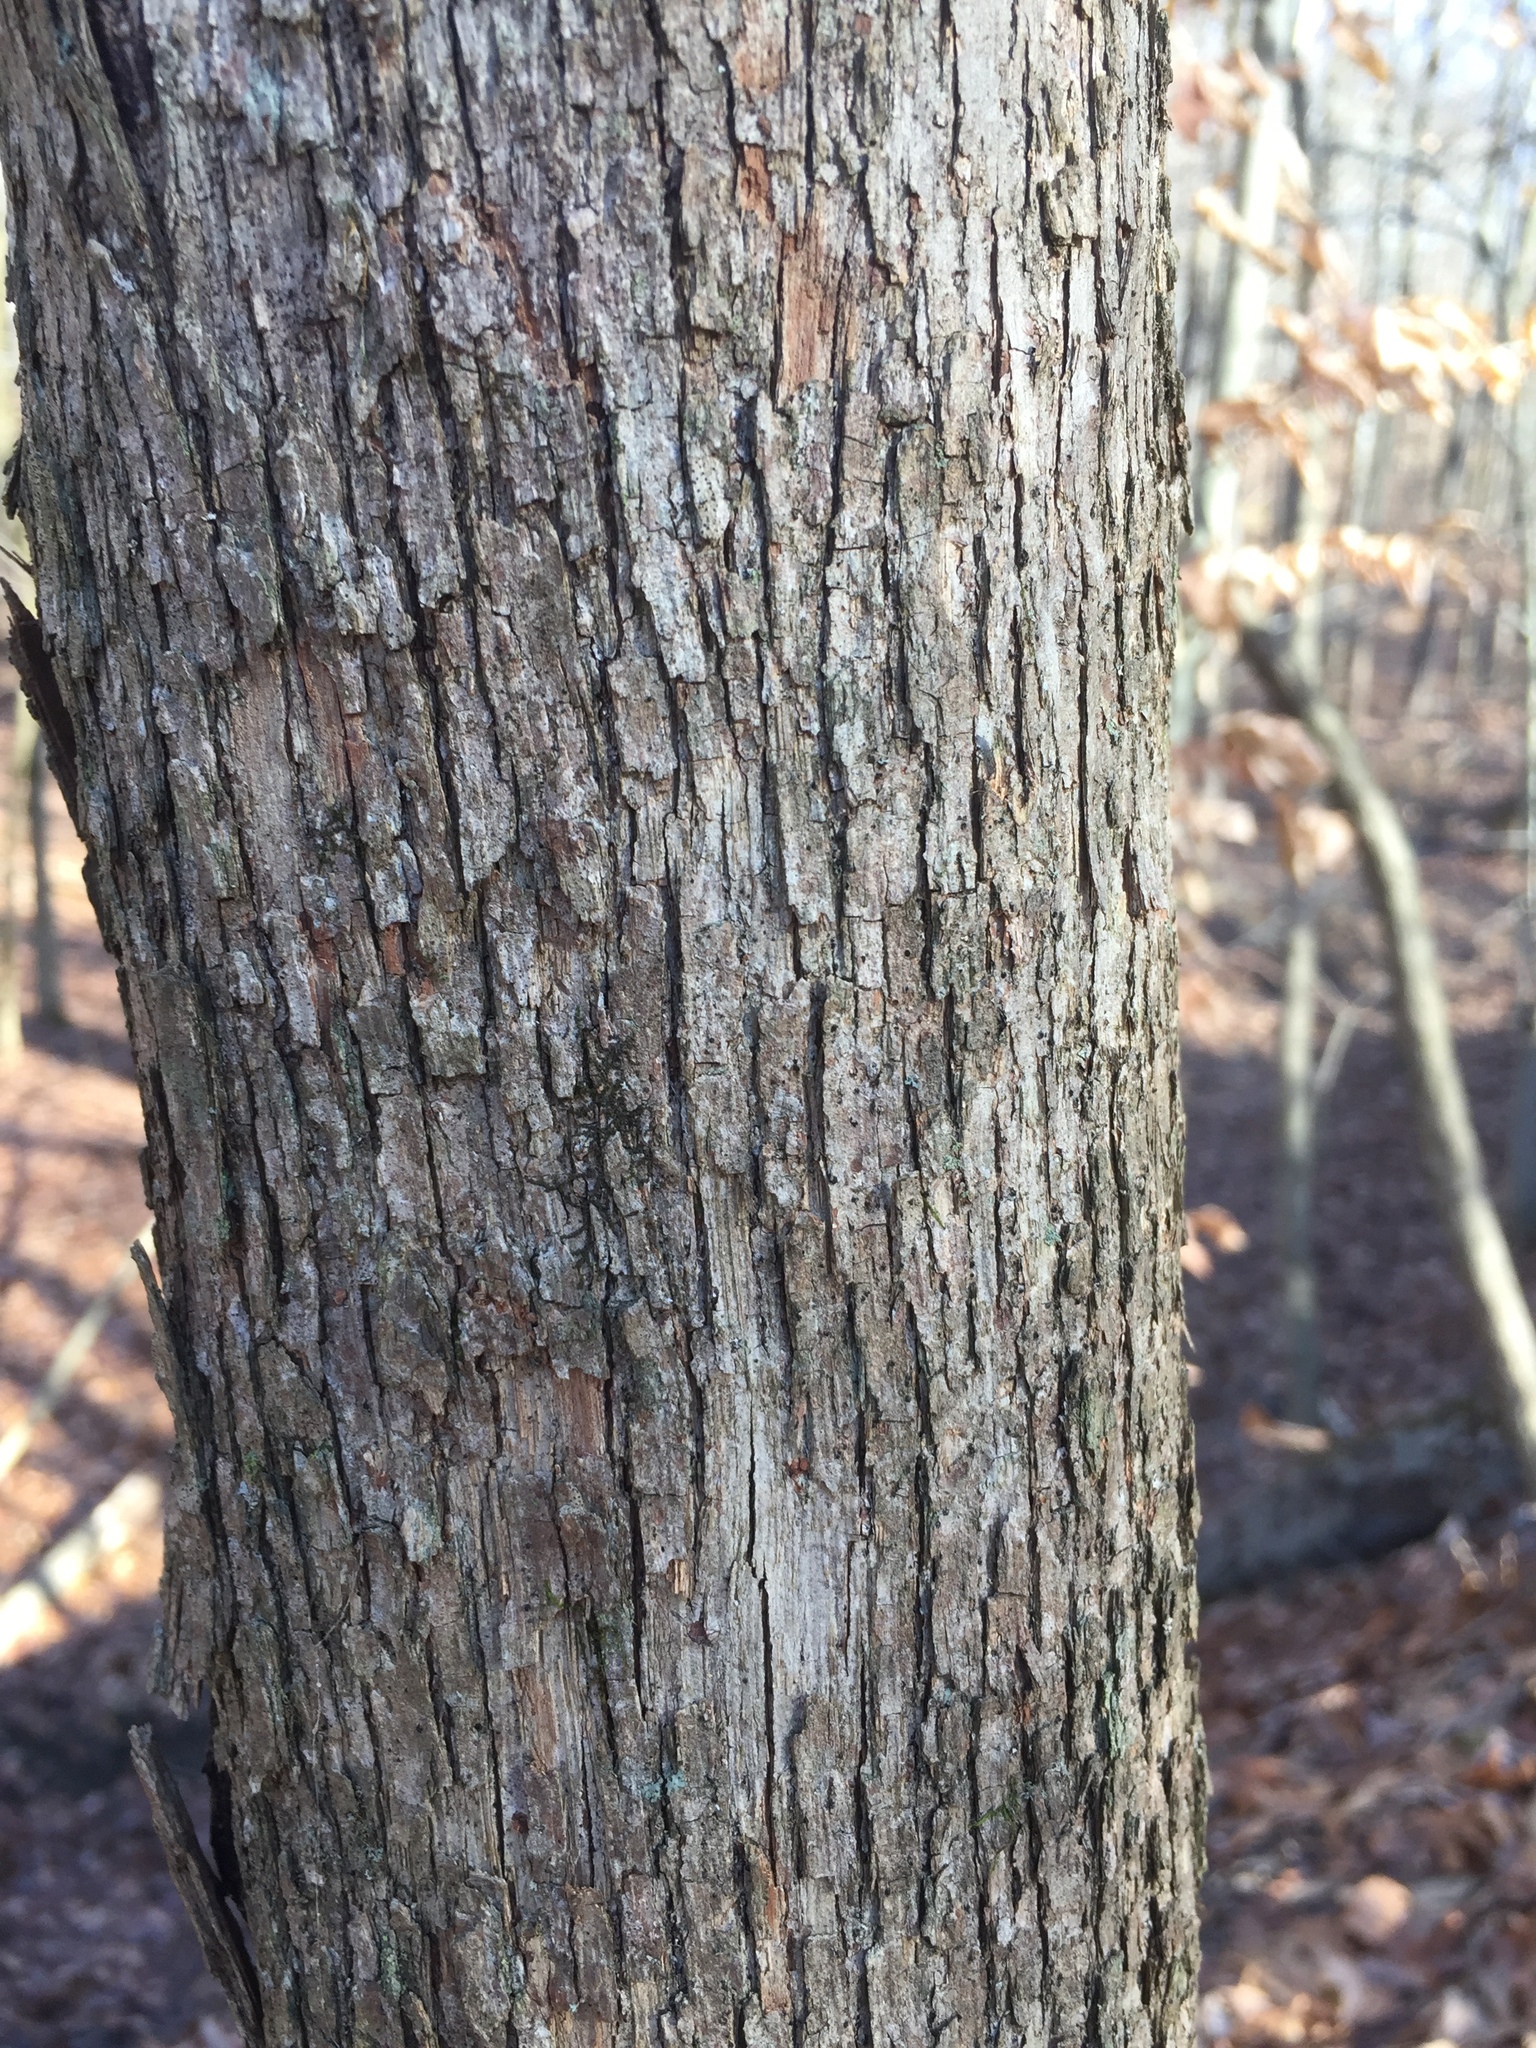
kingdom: Plantae
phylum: Tracheophyta
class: Magnoliopsida
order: Fagales
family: Betulaceae
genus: Ostrya
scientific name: Ostrya virginiana
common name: Ironwood
